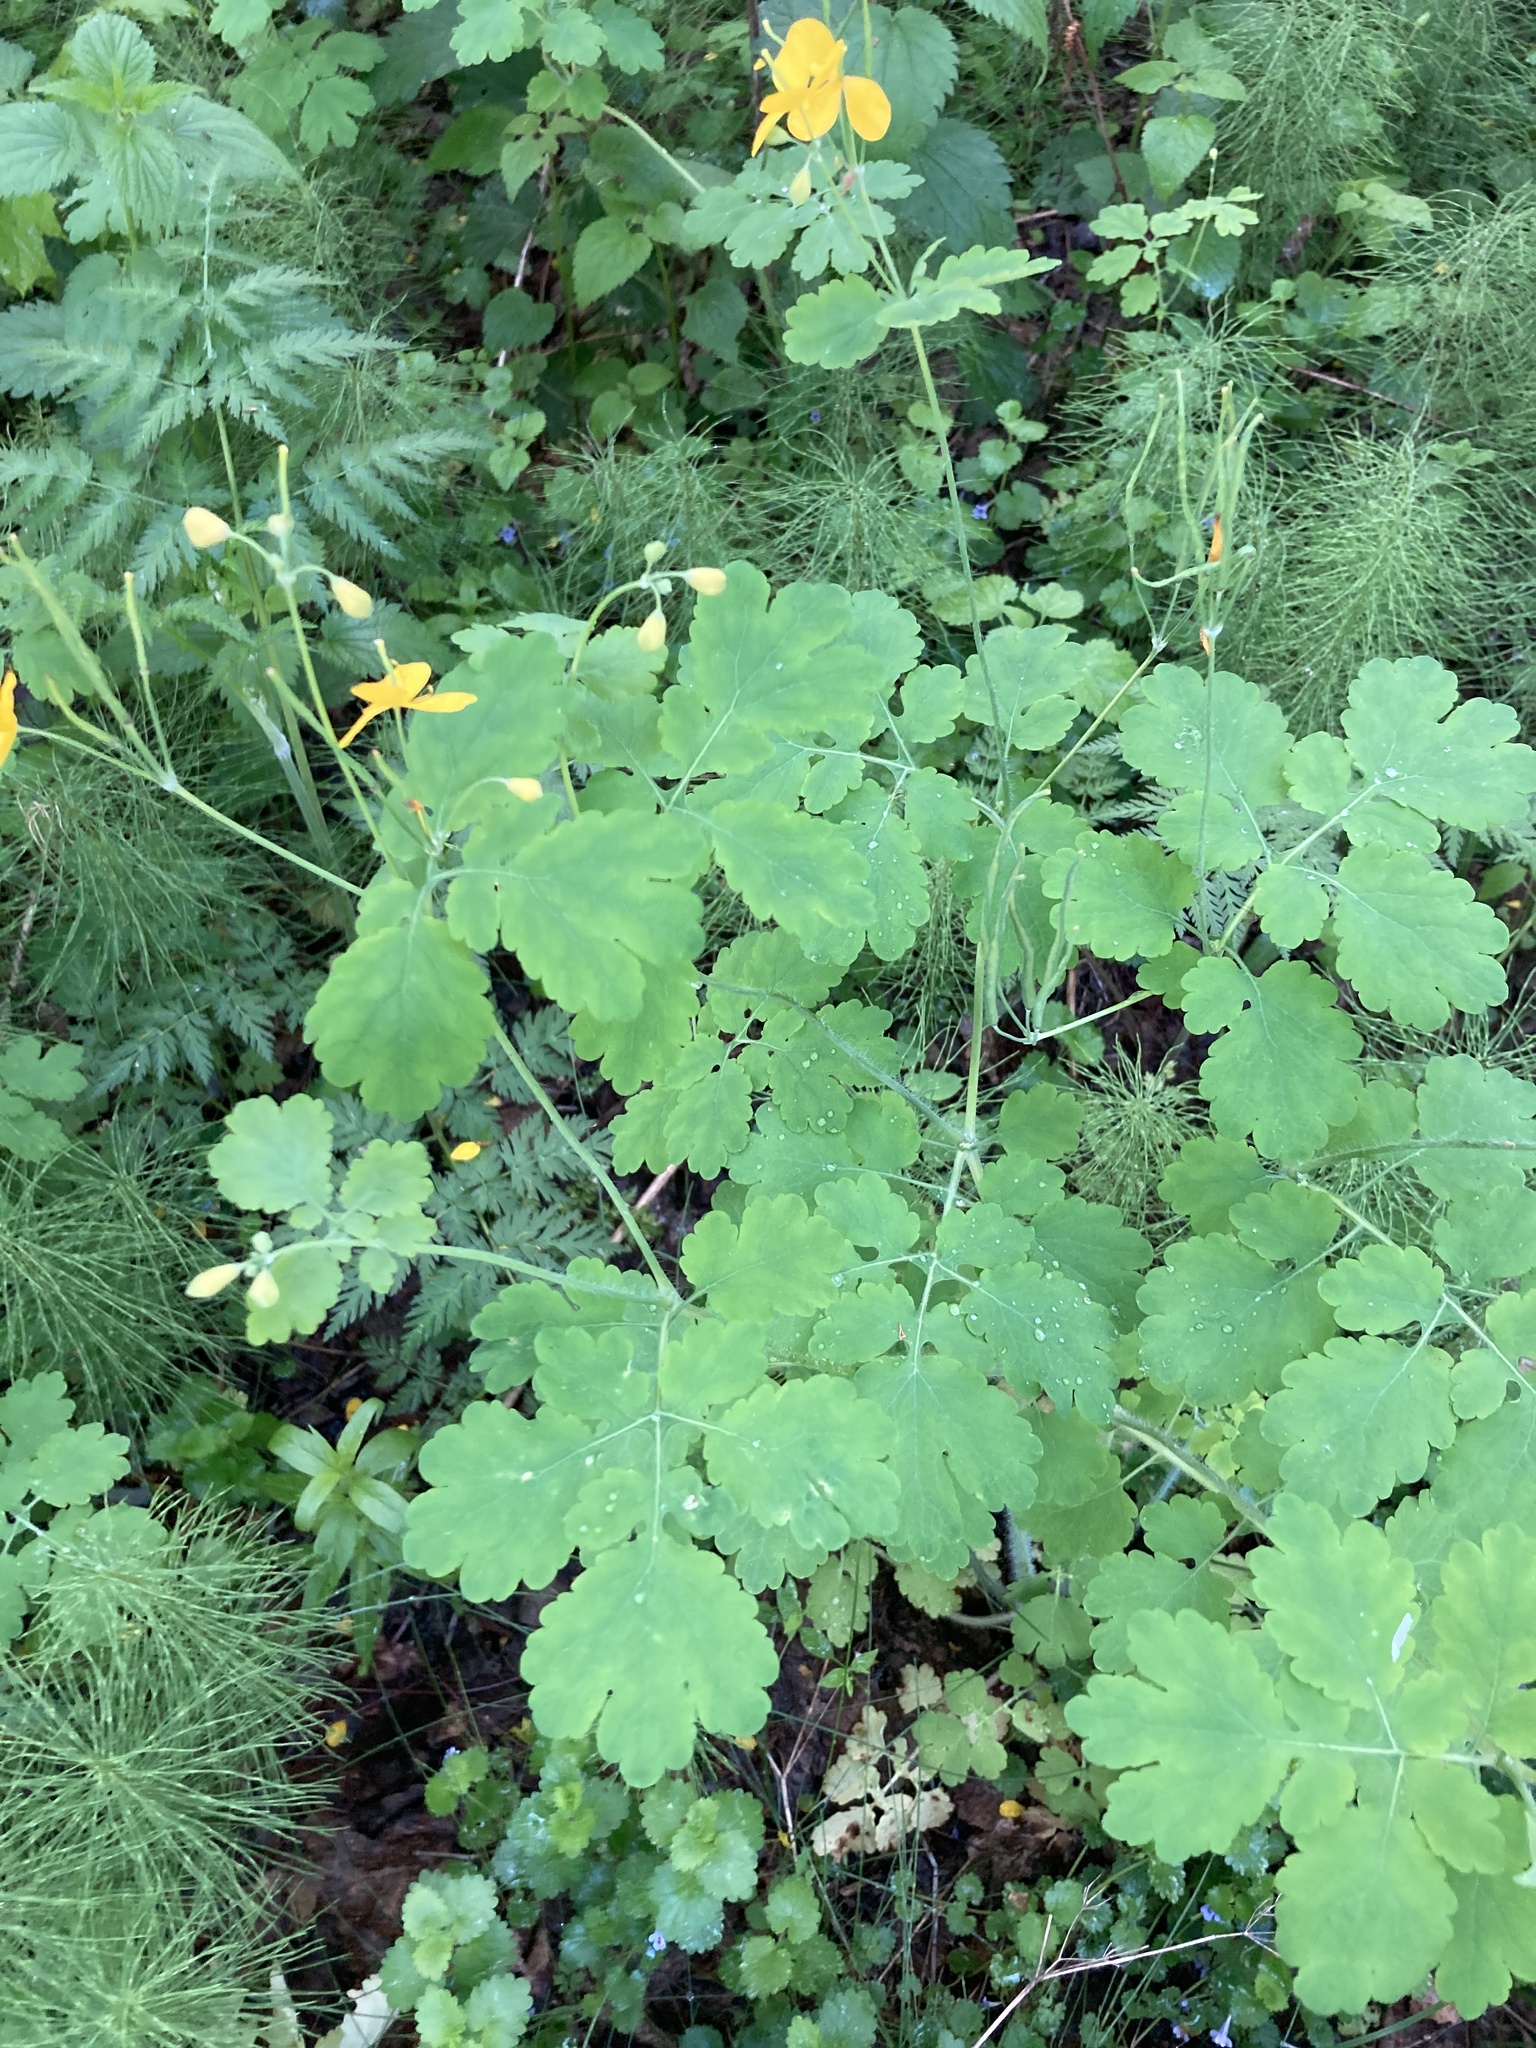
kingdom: Plantae
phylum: Tracheophyta
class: Magnoliopsida
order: Ranunculales
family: Papaveraceae
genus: Chelidonium
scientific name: Chelidonium majus
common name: Greater celandine
